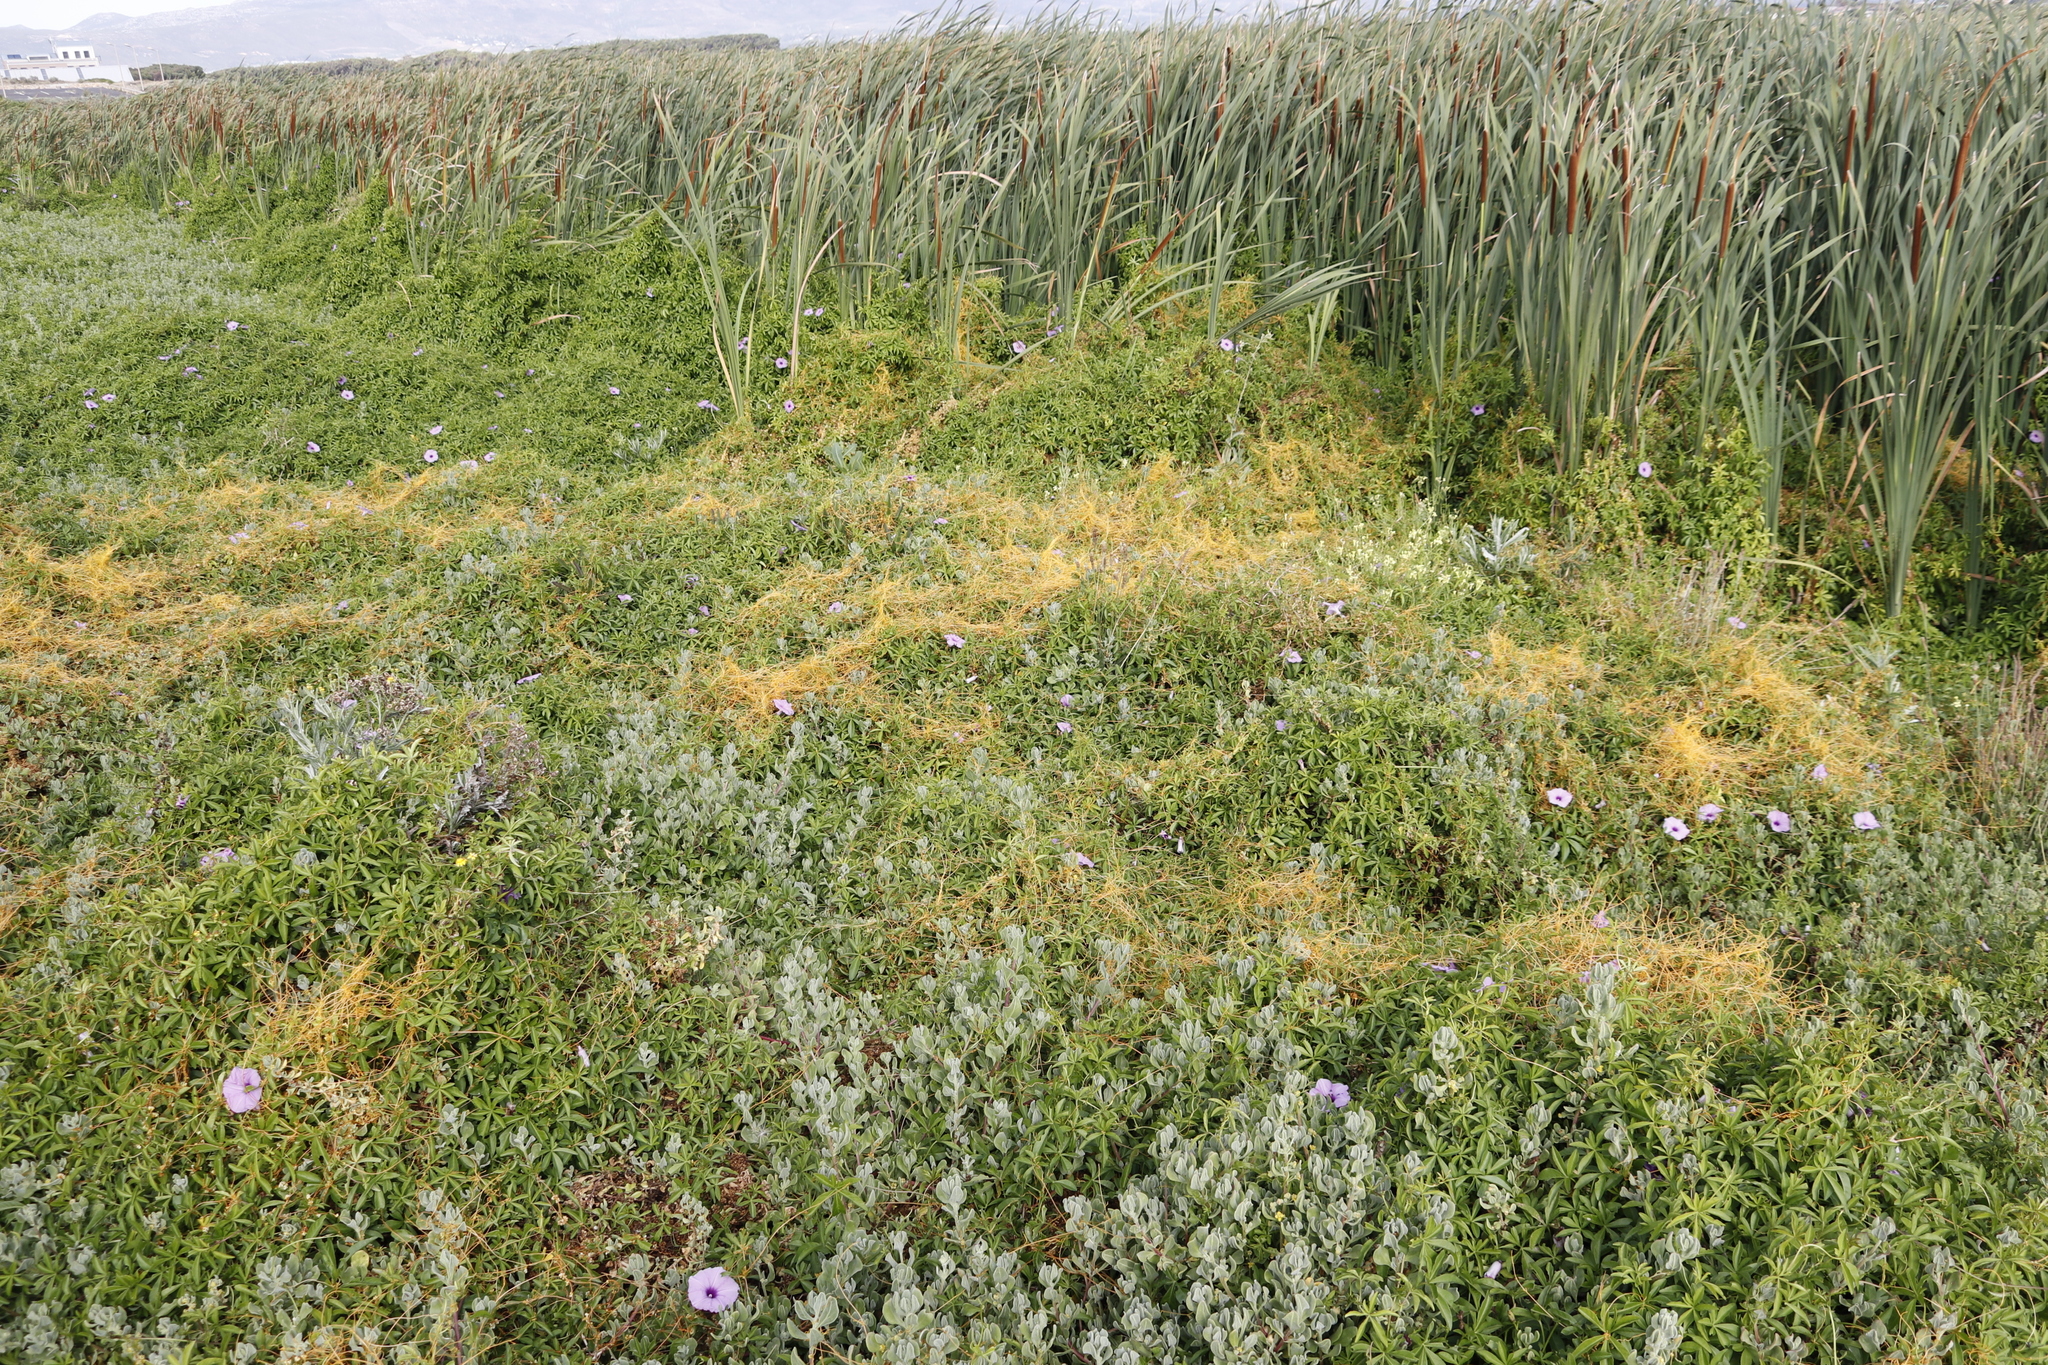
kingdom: Plantae
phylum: Tracheophyta
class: Magnoliopsida
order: Solanales
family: Convolvulaceae
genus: Cuscuta
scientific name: Cuscuta campestris
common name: Yellow dodder
